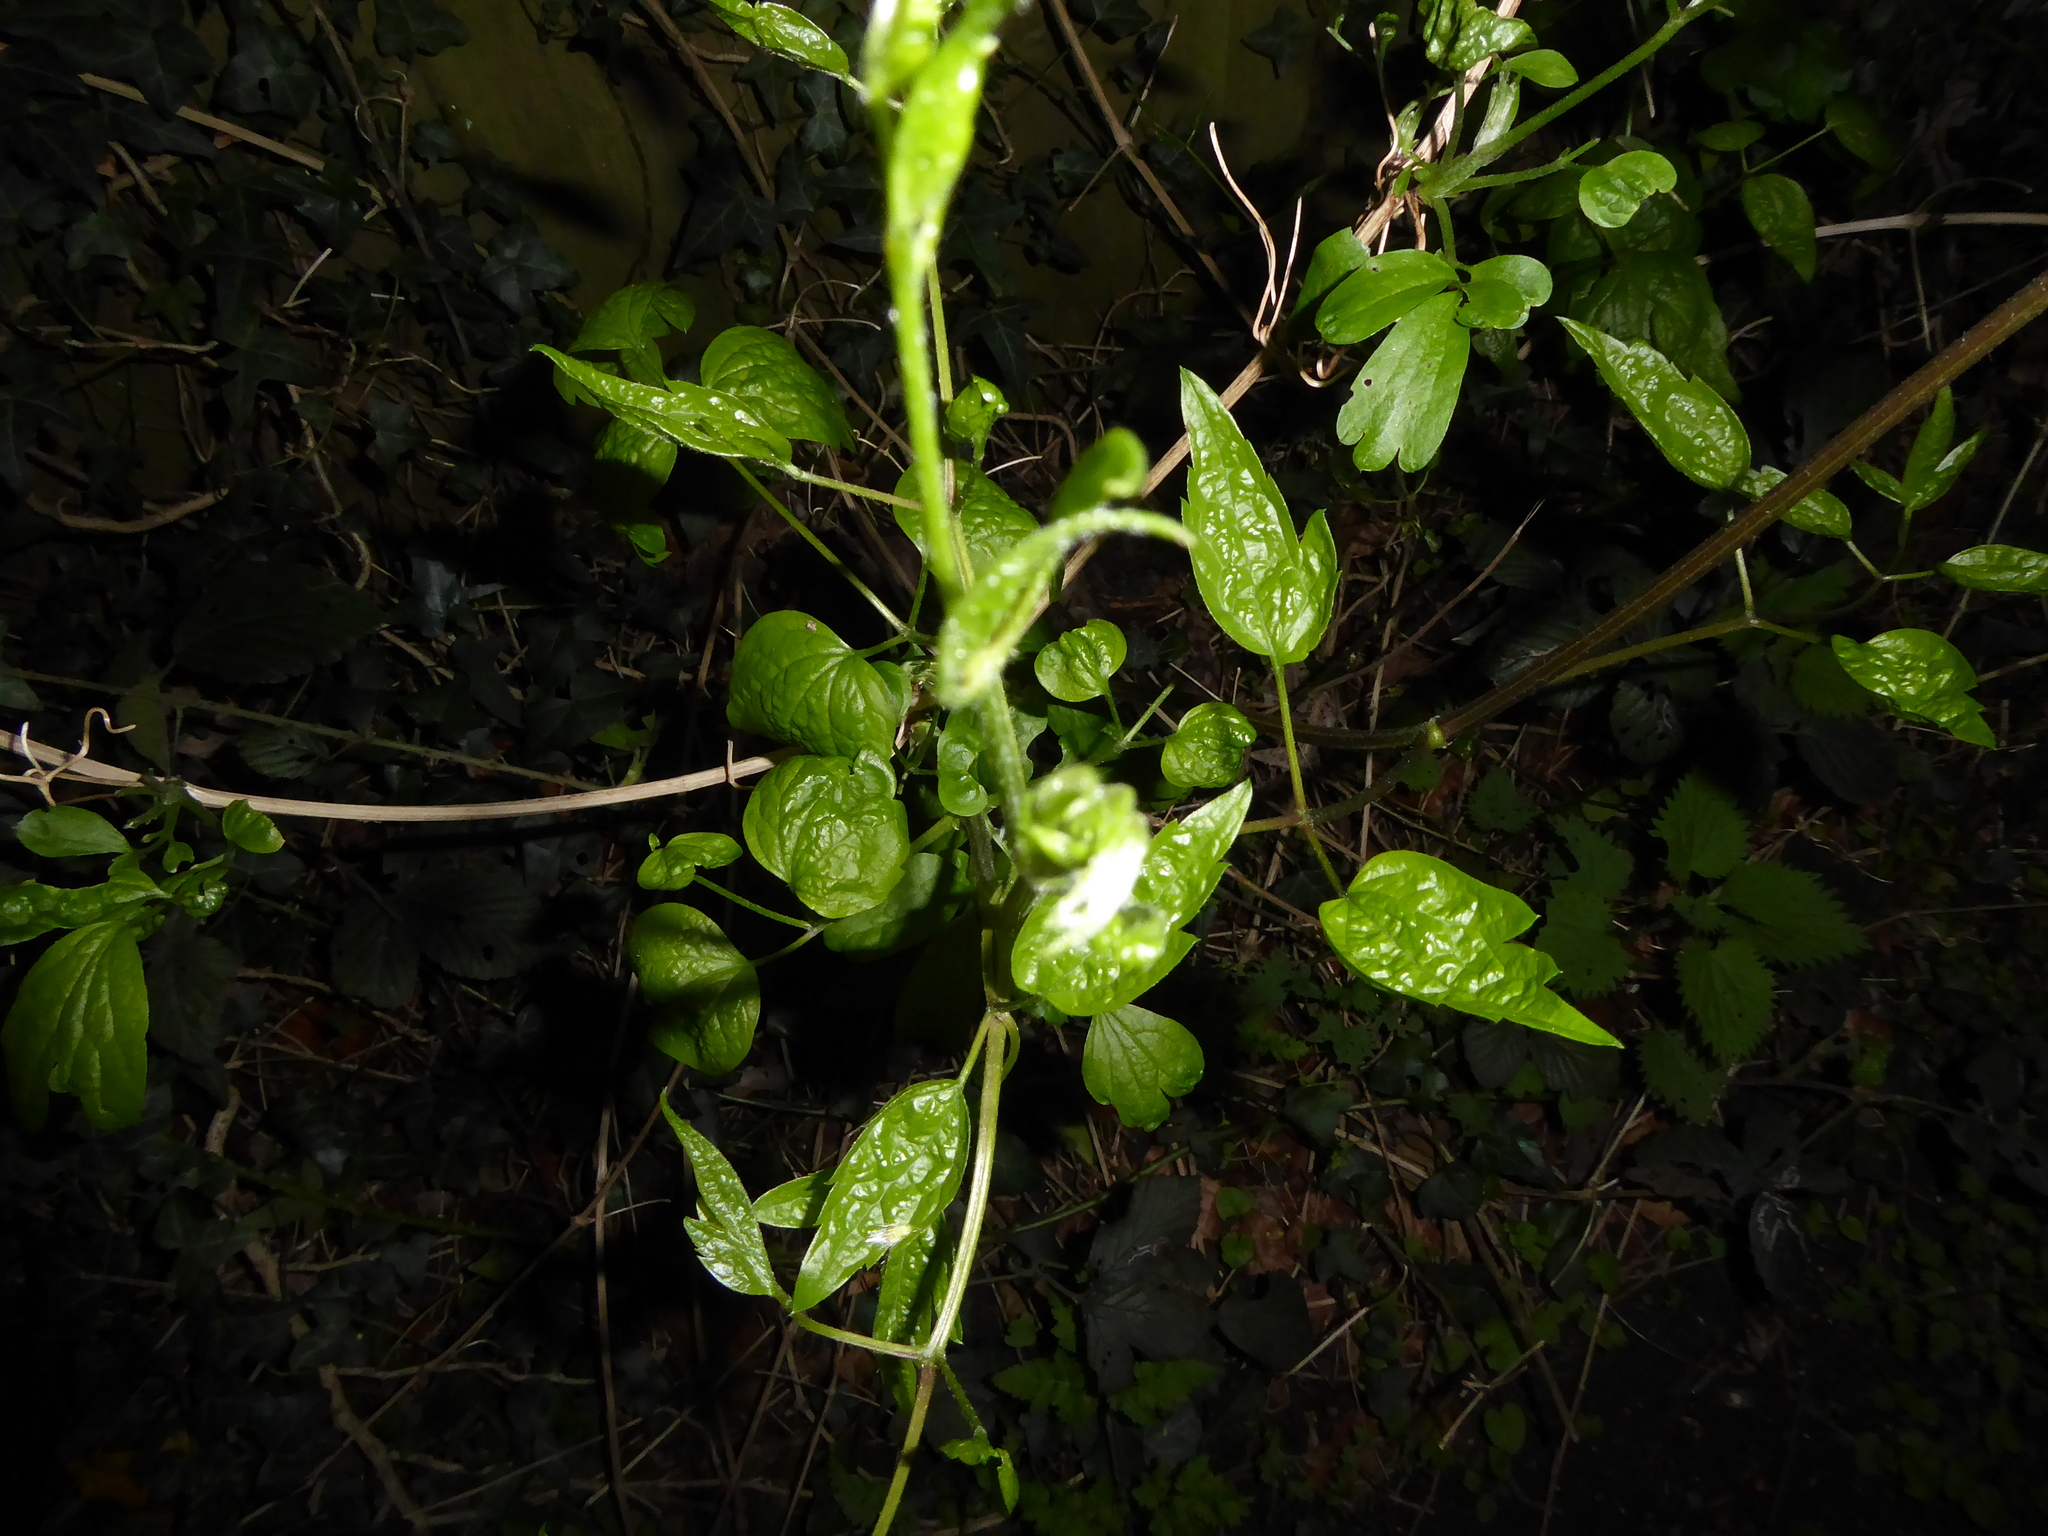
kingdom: Plantae
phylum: Tracheophyta
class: Magnoliopsida
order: Ranunculales
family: Ranunculaceae
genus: Clematis
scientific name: Clematis vitalba
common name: Evergreen clematis
